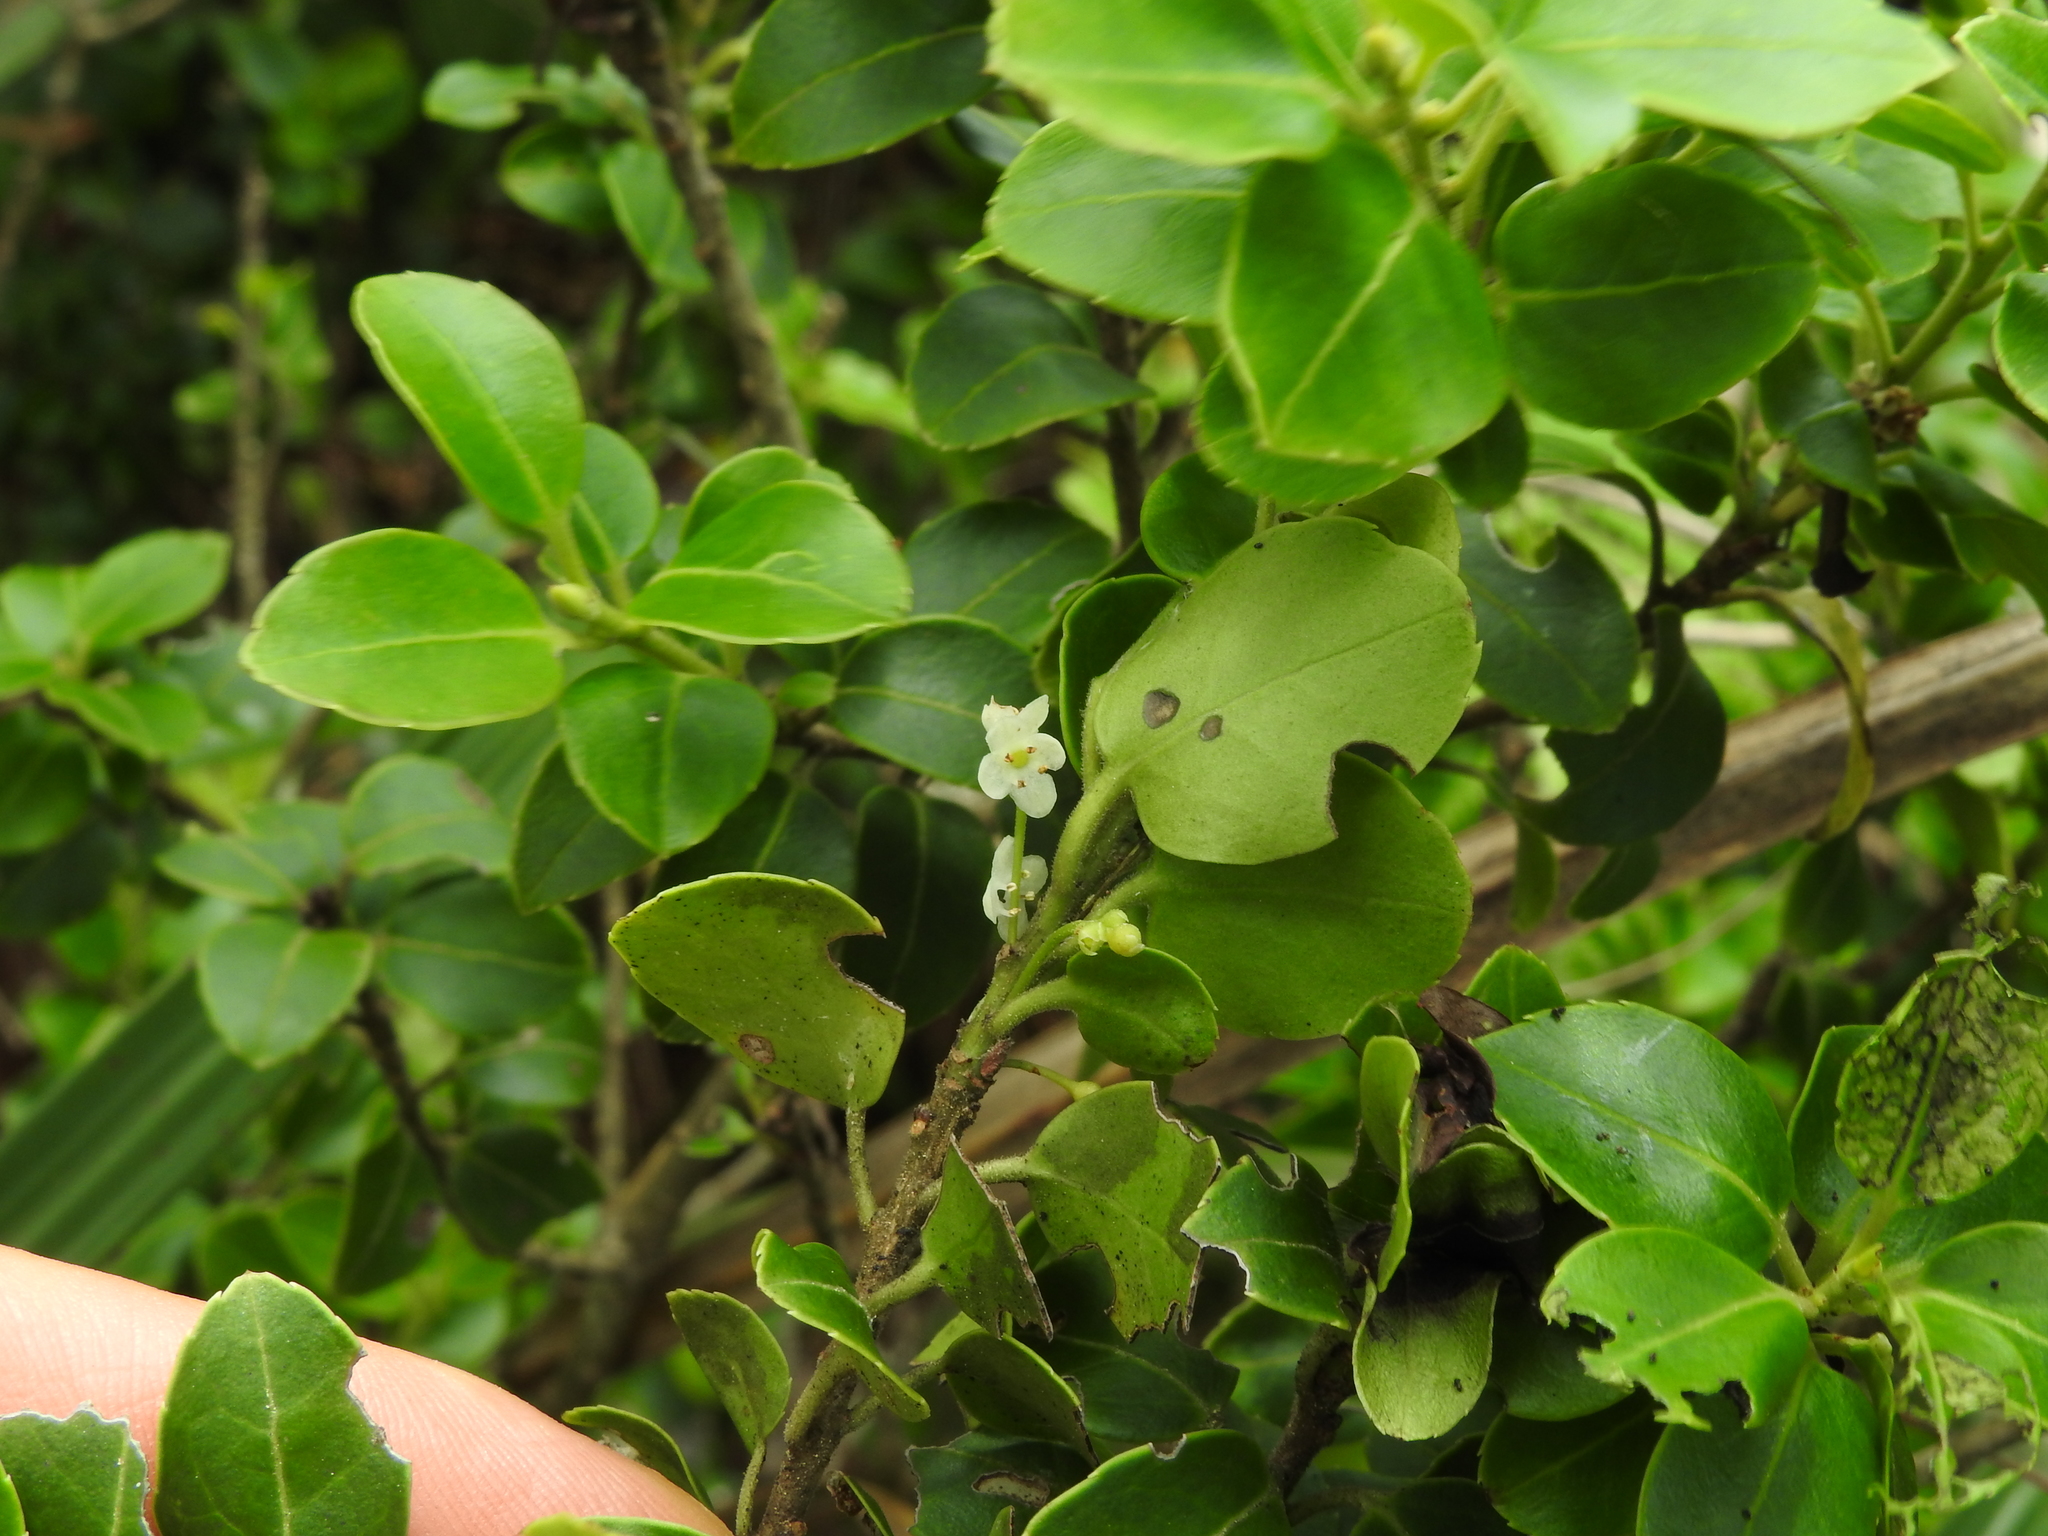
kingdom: Plantae
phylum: Tracheophyta
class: Magnoliopsida
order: Aquifoliales
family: Aquifoliaceae
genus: Ilex
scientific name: Ilex sugerokii
